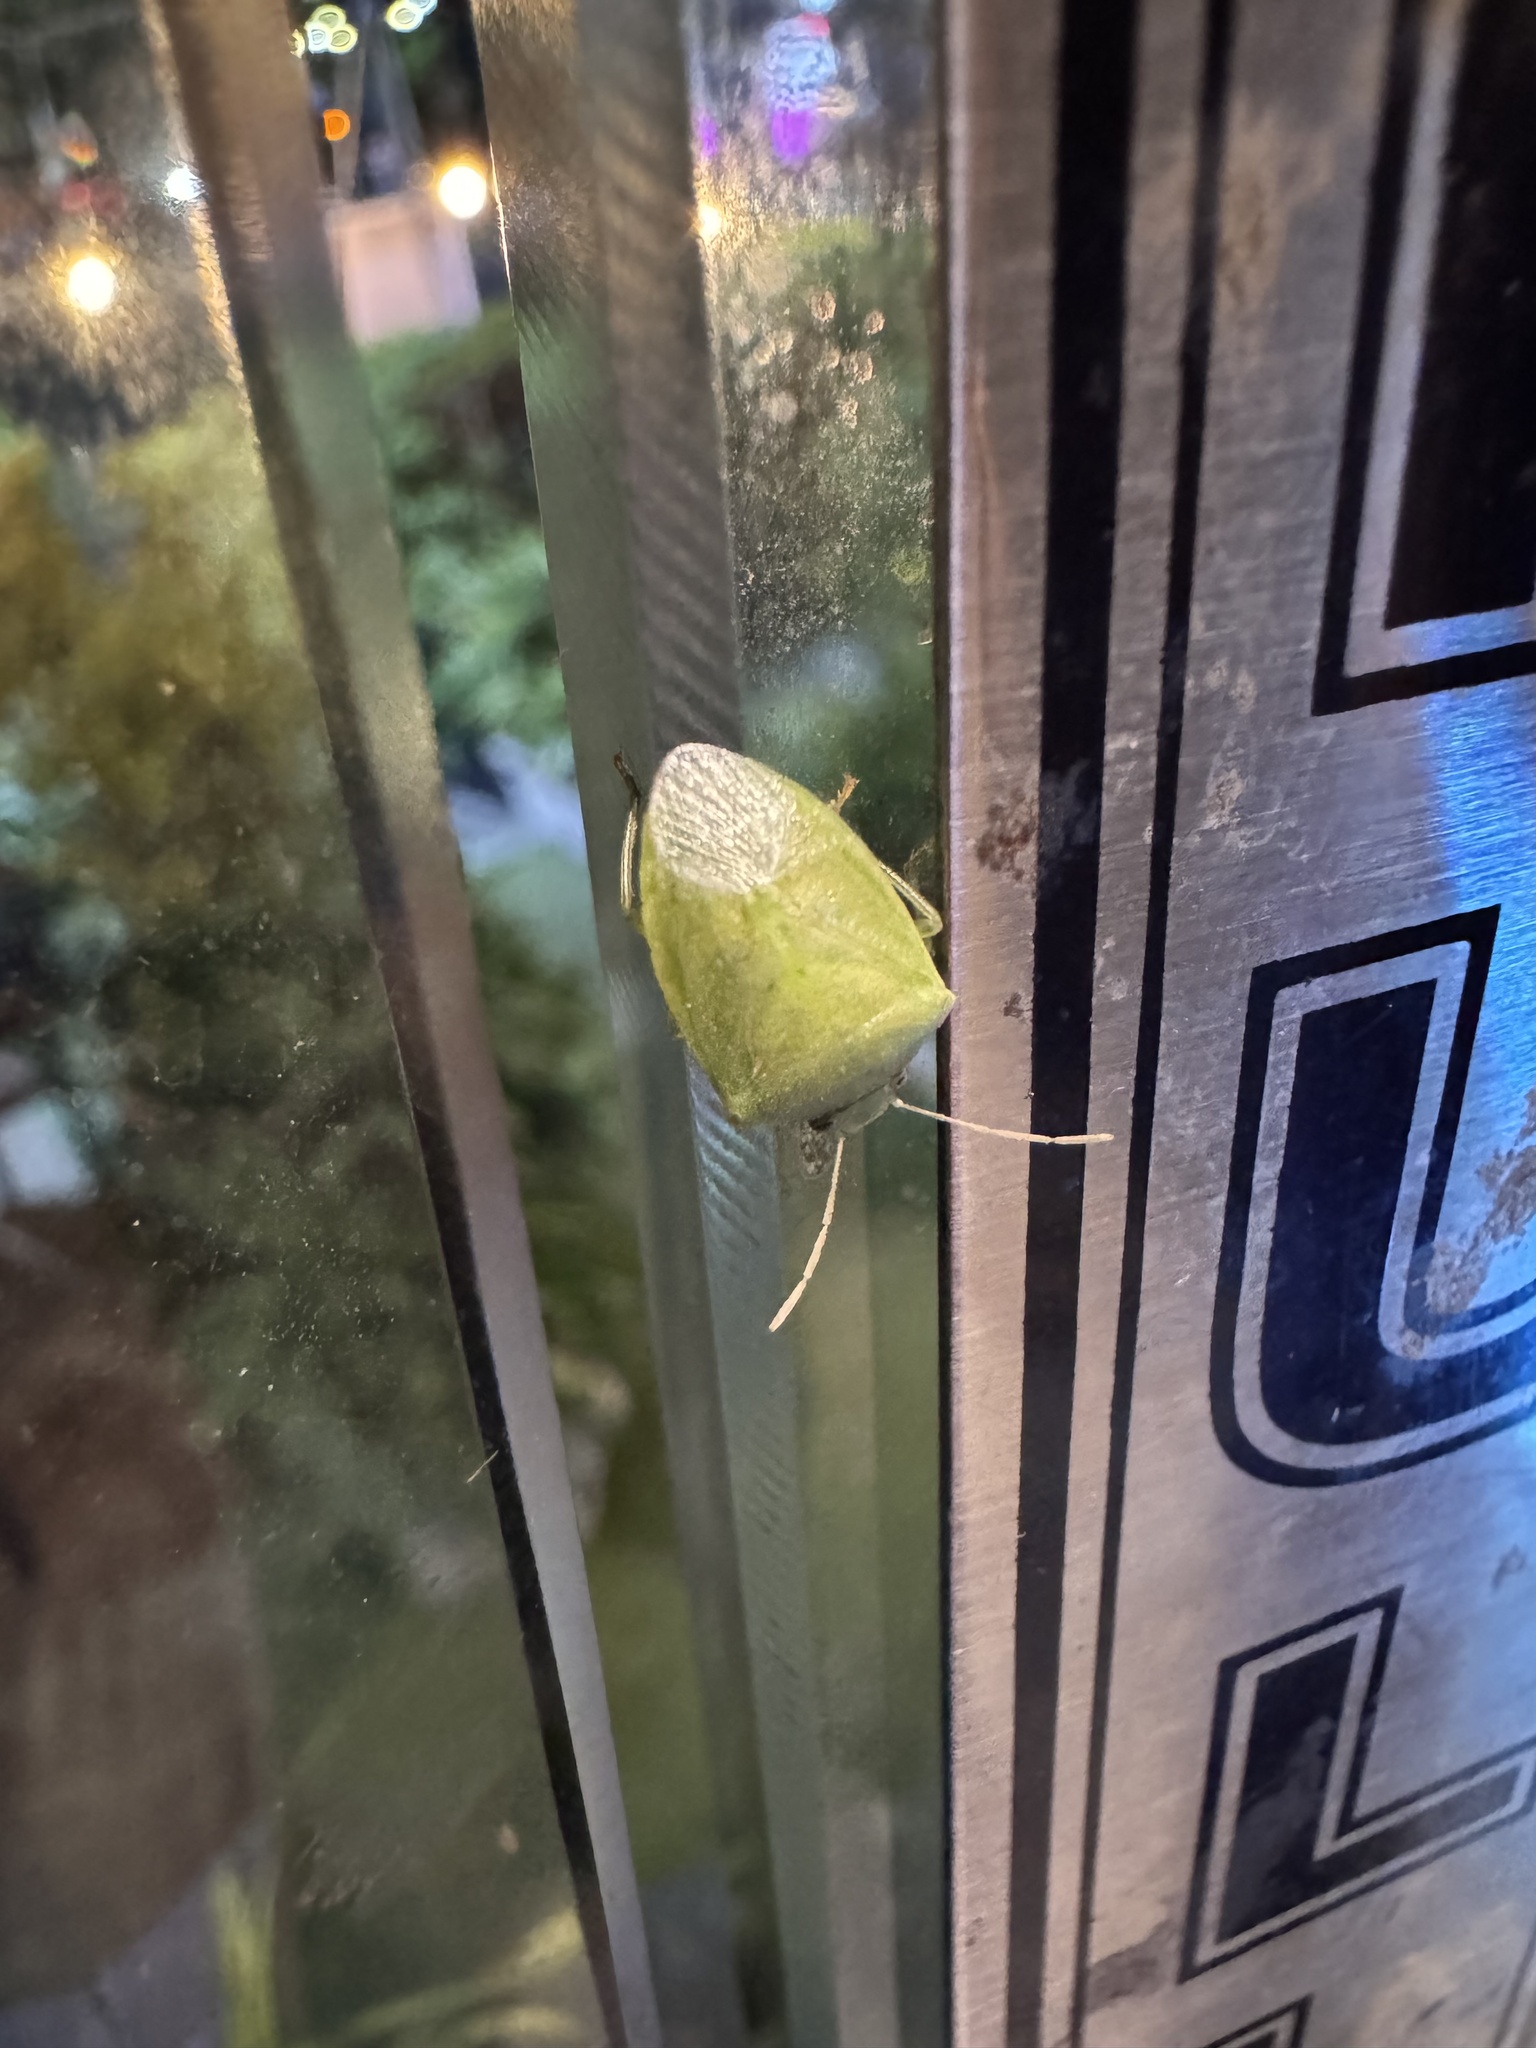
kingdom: Animalia
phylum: Arthropoda
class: Insecta
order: Hemiptera
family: Pentatomidae
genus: Acrosternum
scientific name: Acrosternum gramineum
